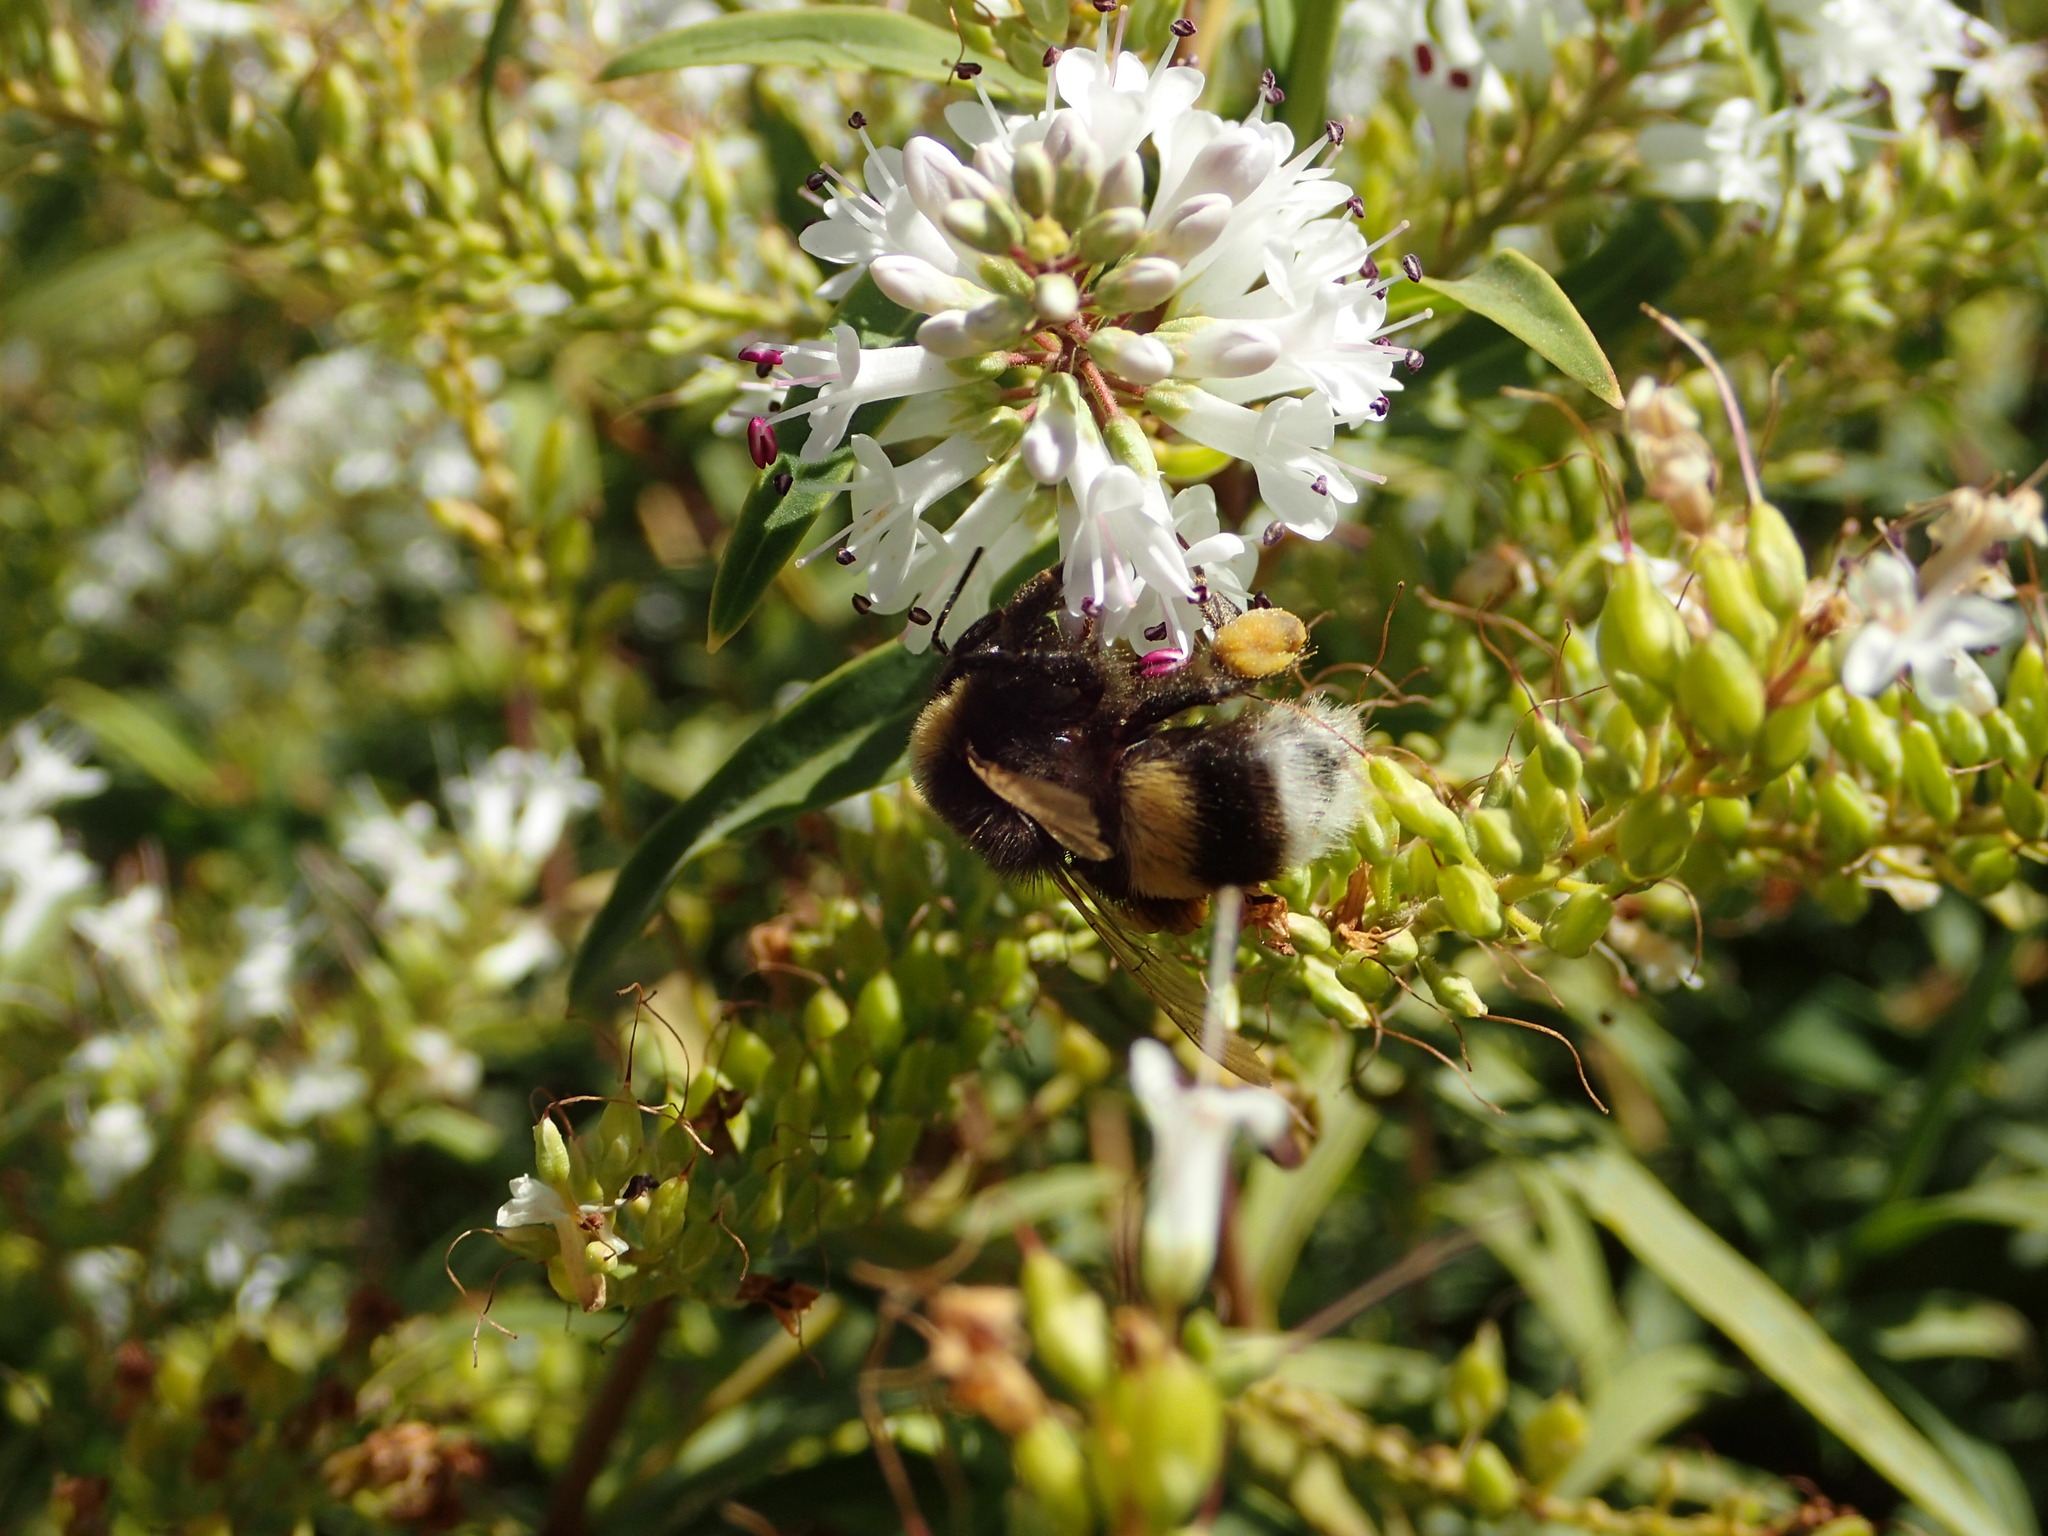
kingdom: Animalia
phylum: Arthropoda
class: Insecta
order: Hymenoptera
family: Apidae
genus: Bombus
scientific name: Bombus terrestris
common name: Buff-tailed bumblebee
